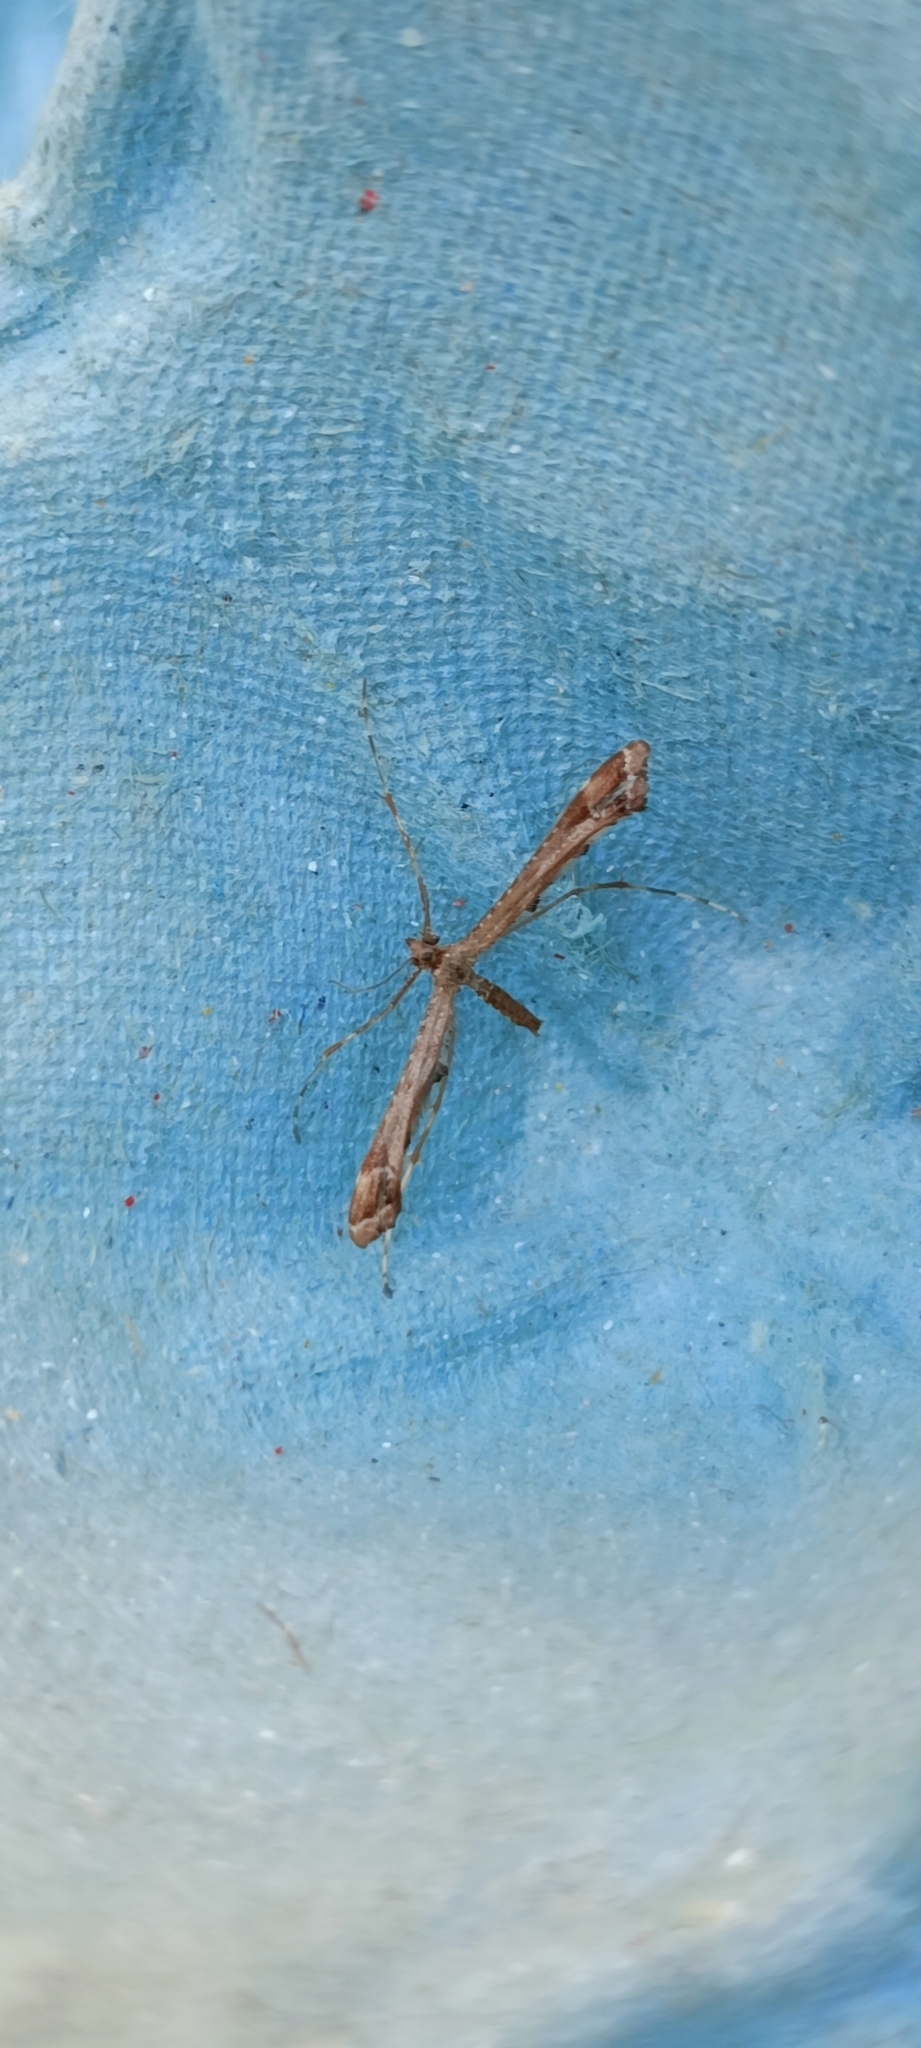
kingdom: Animalia
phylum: Arthropoda
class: Insecta
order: Lepidoptera
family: Pterophoridae
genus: Amblyptilia
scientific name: Amblyptilia acanthadactyla
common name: Beautiful plume
